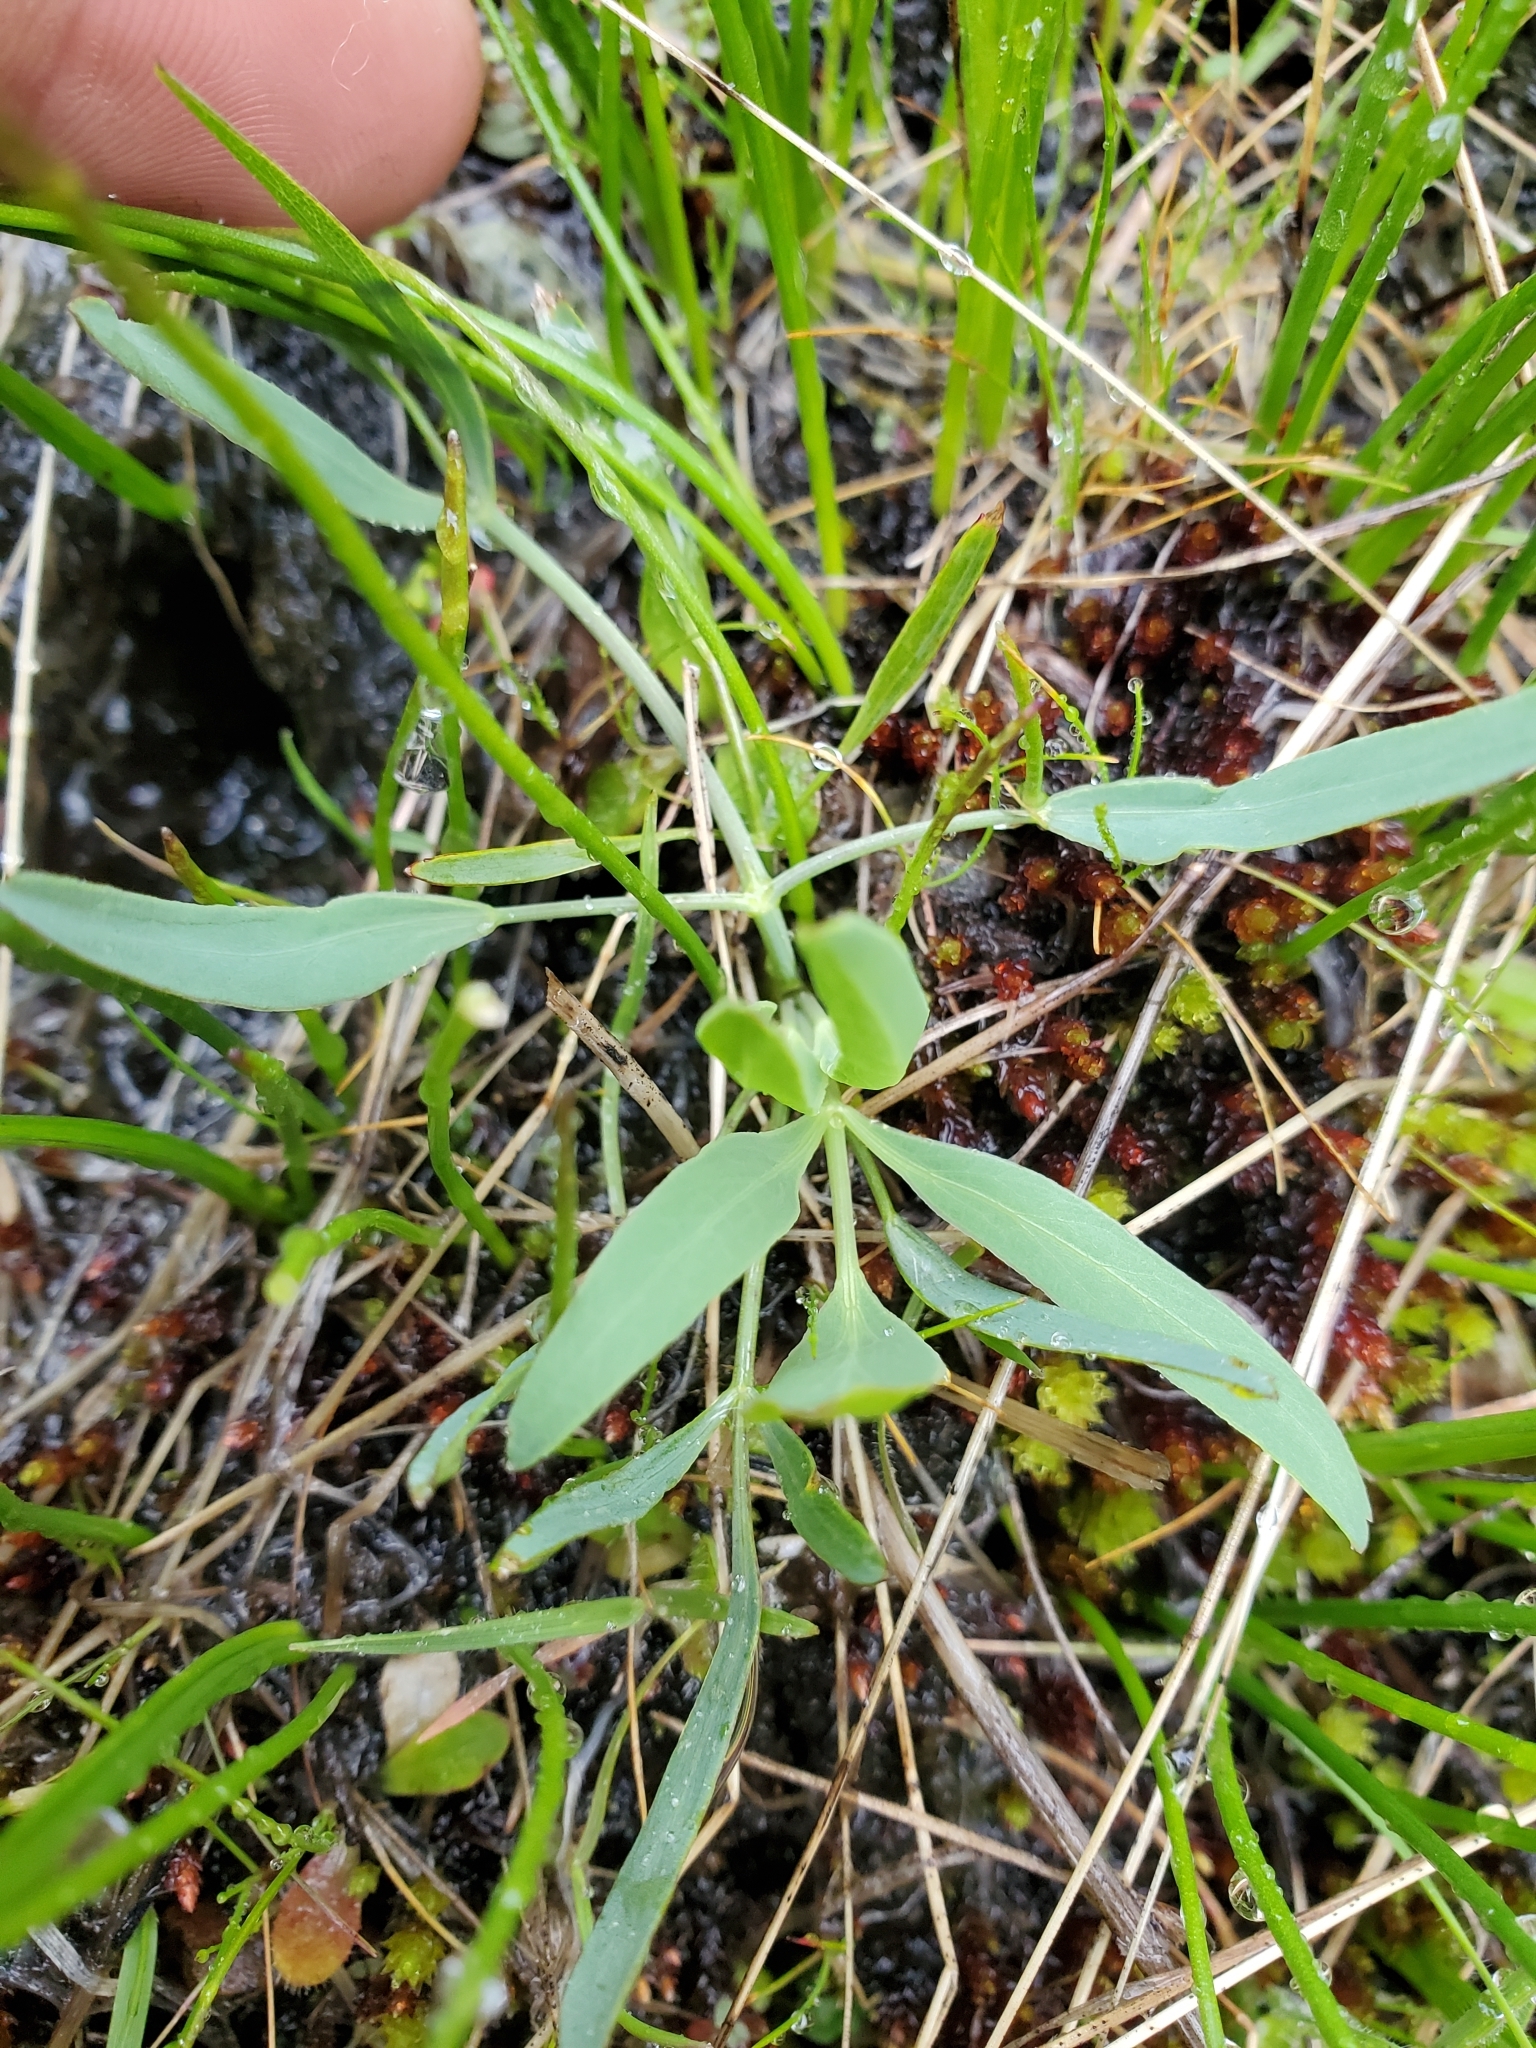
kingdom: Plantae
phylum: Tracheophyta
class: Magnoliopsida
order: Apiales
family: Apiaceae
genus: Lomatium
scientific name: Lomatium nudicaule
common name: Pestle lomatium
